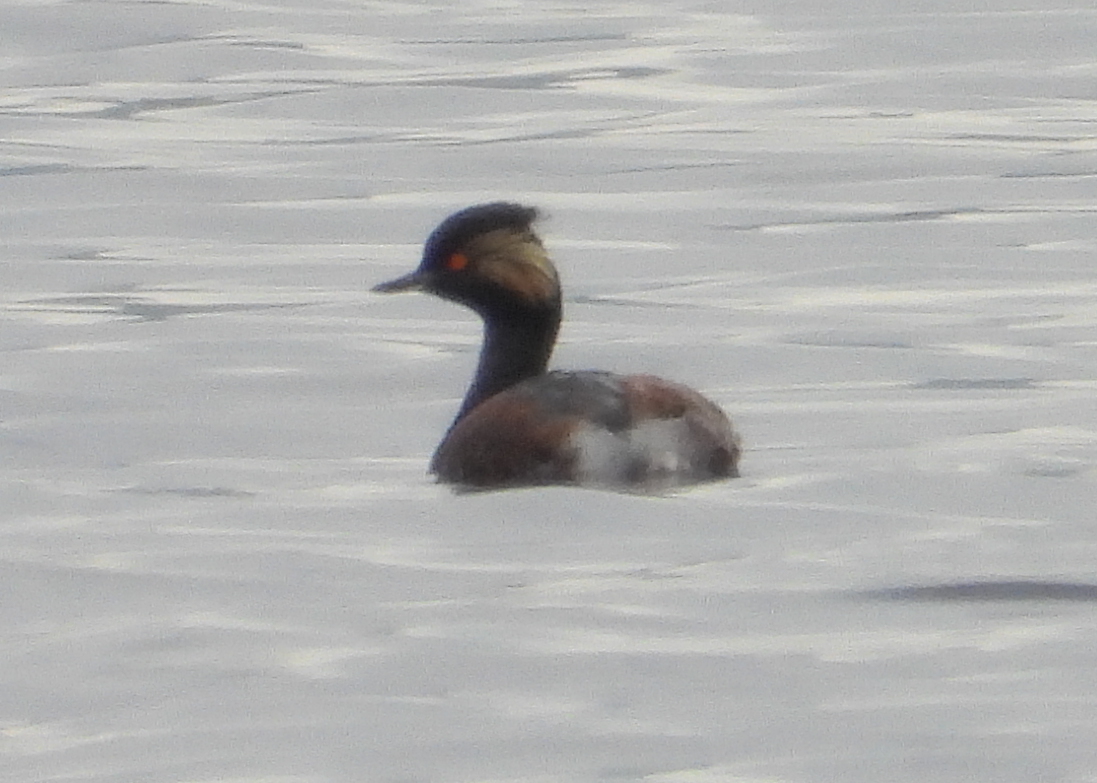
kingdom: Animalia
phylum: Chordata
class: Aves
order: Podicipediformes
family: Podicipedidae
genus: Podiceps
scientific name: Podiceps nigricollis
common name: Black-necked grebe
